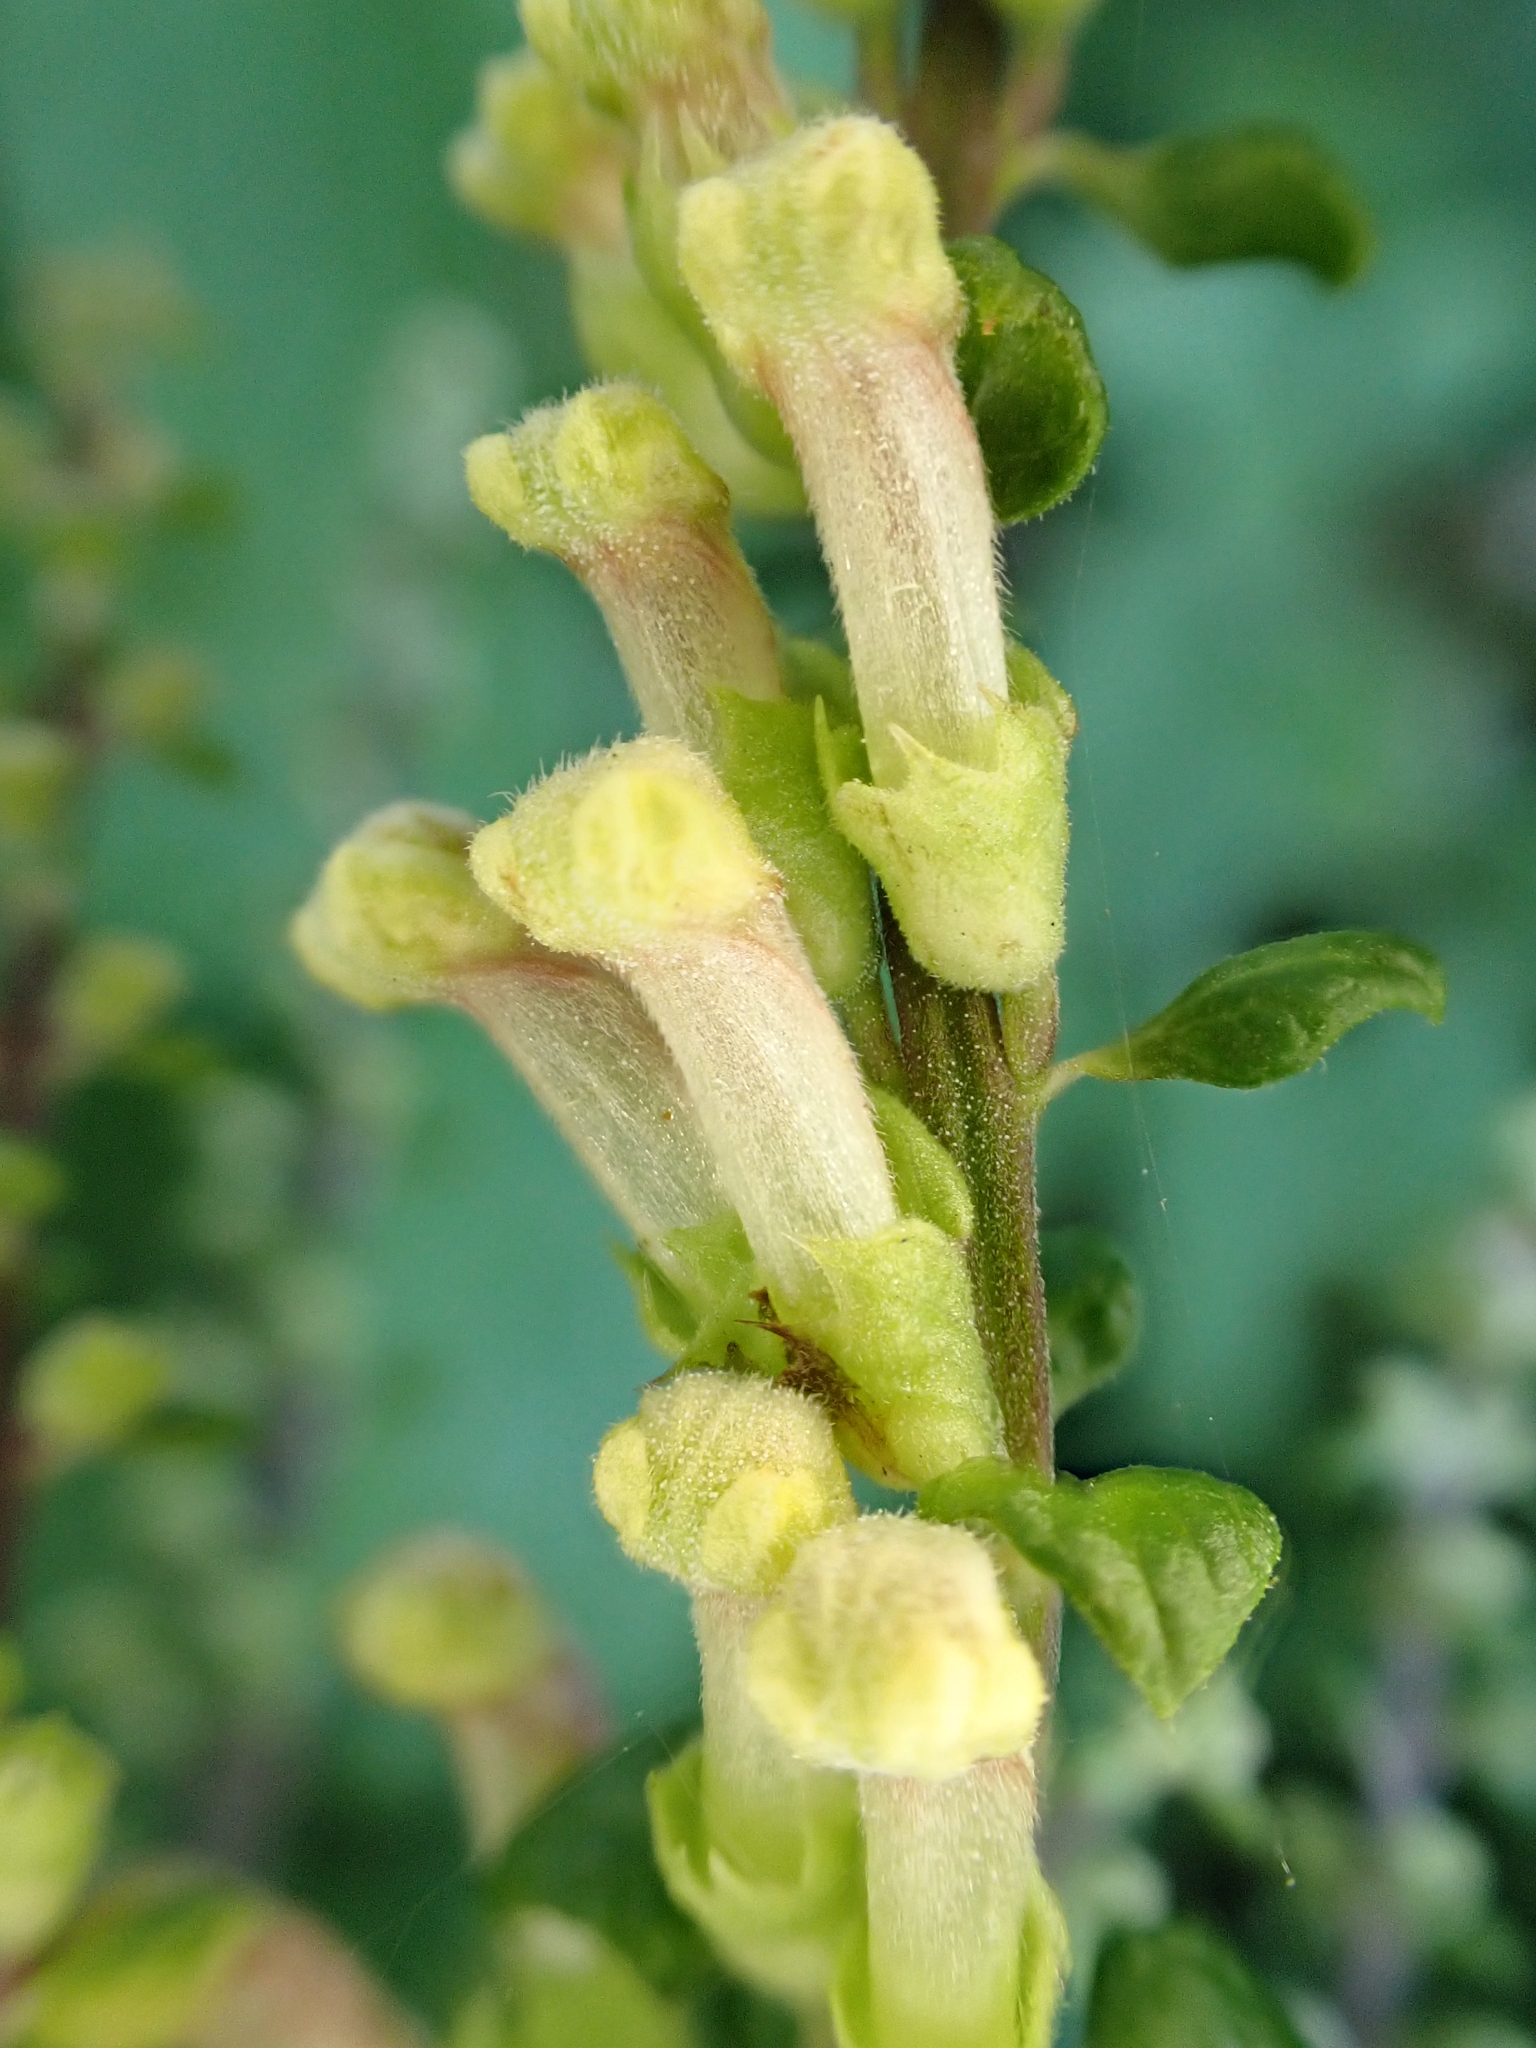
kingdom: Plantae
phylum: Tracheophyta
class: Magnoliopsida
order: Lamiales
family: Lamiaceae
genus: Teucrium
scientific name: Teucrium scorodonia
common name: Woodland germander
